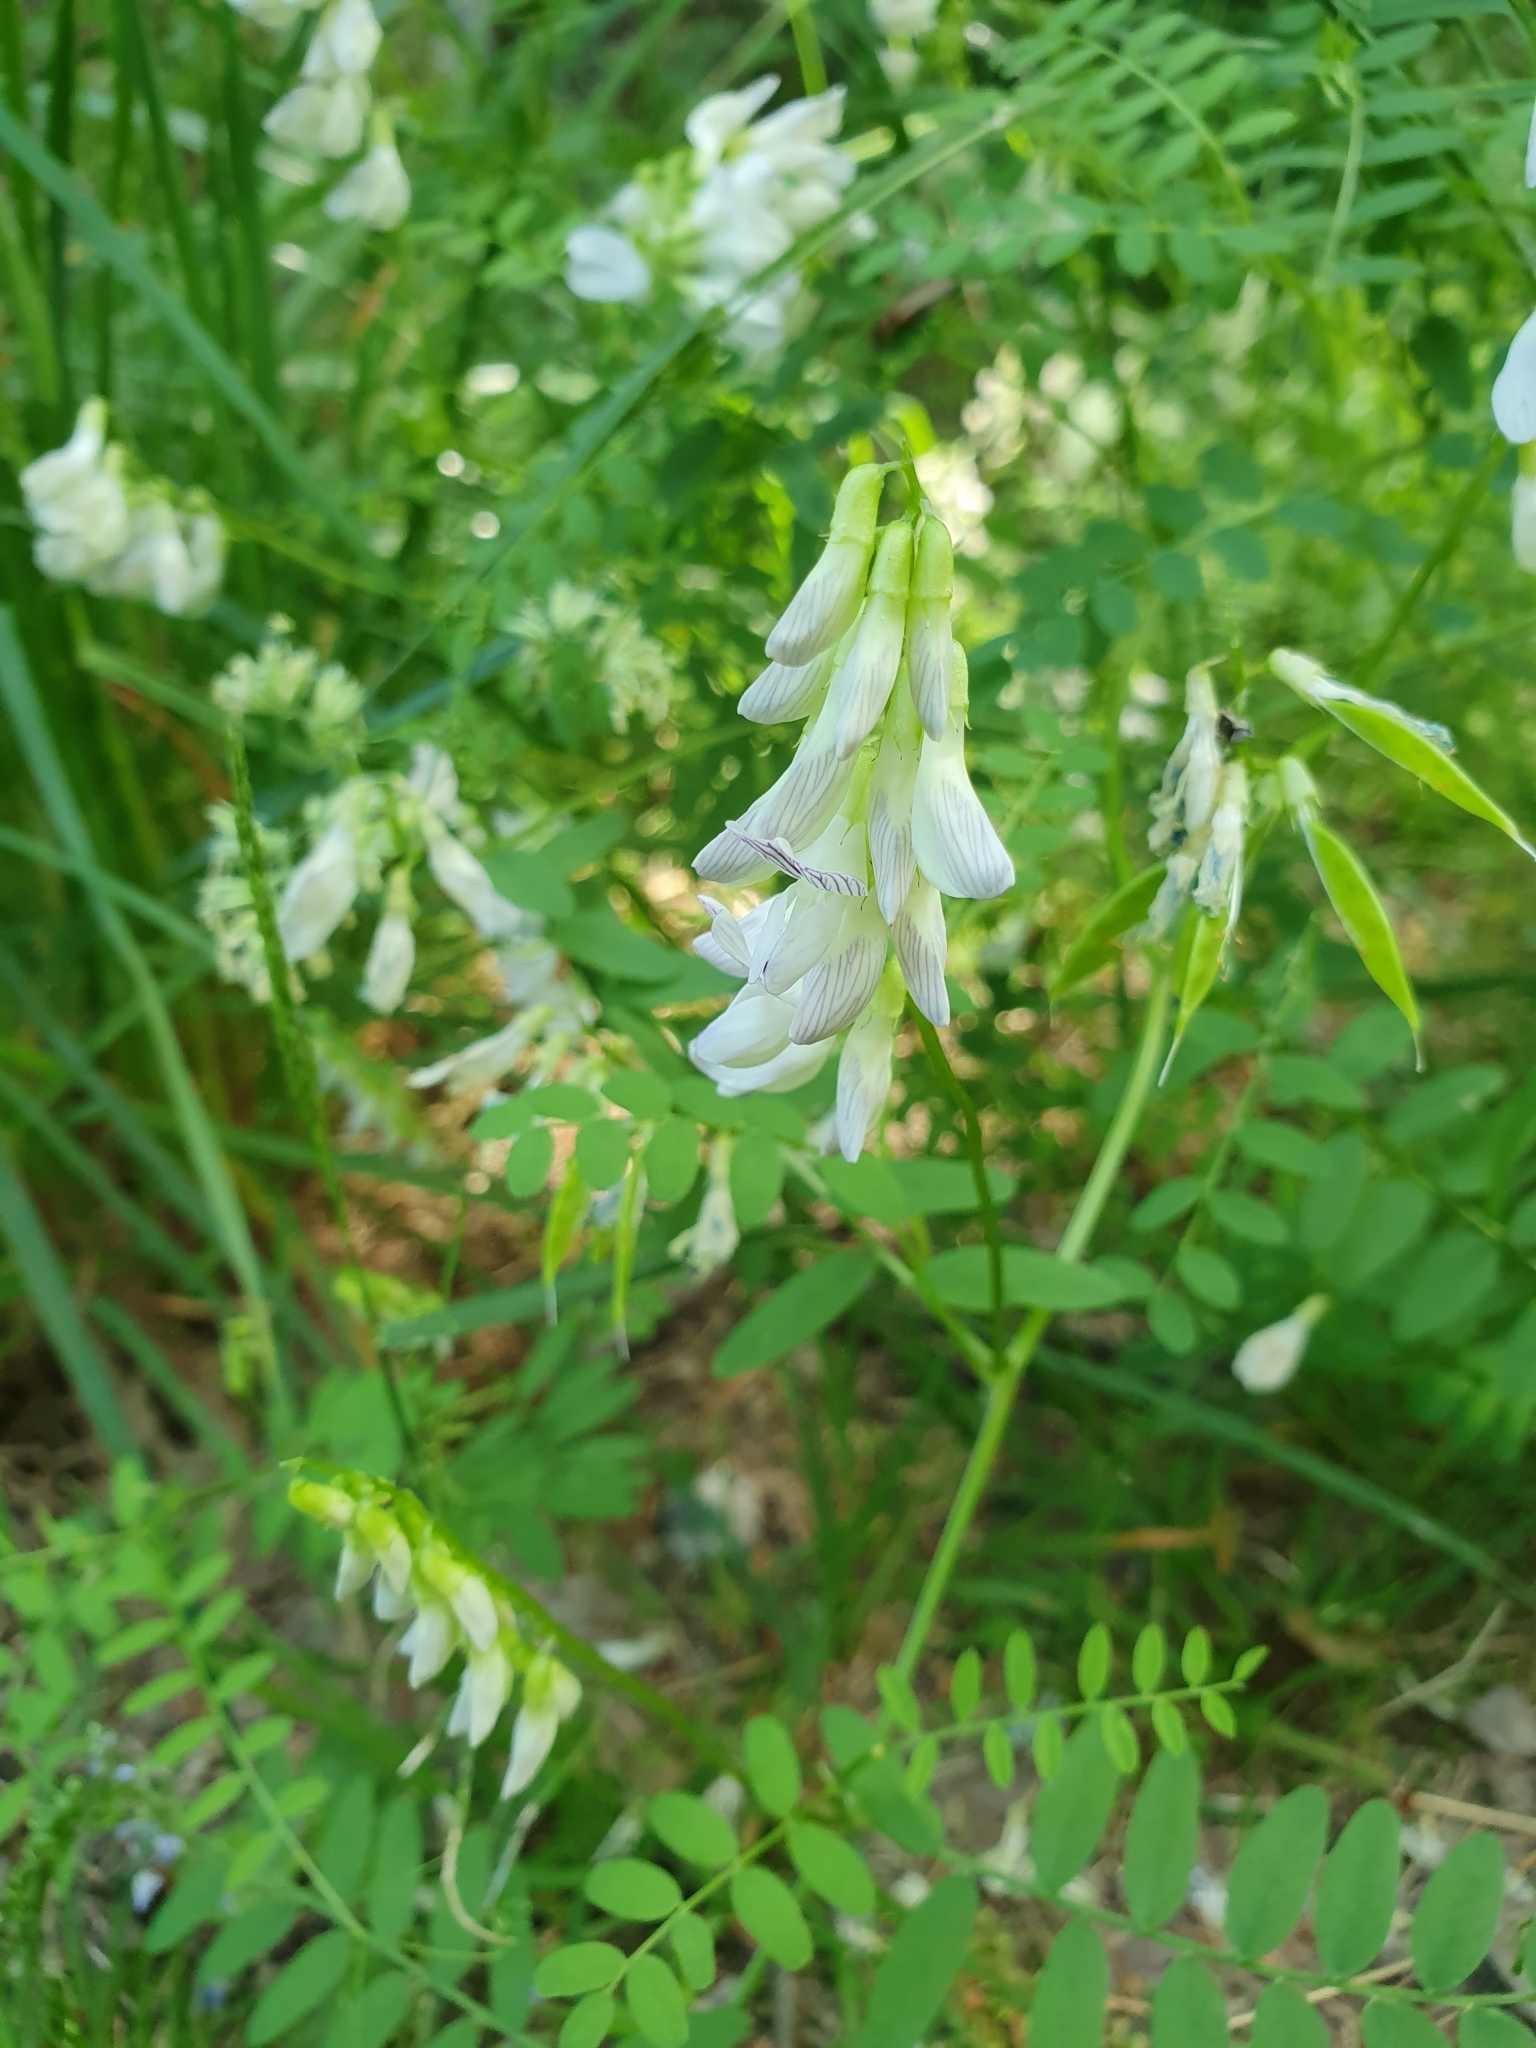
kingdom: Plantae
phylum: Tracheophyta
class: Magnoliopsida
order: Fabales
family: Fabaceae
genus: Vicia
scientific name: Vicia sylvatica
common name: Wood vetch
